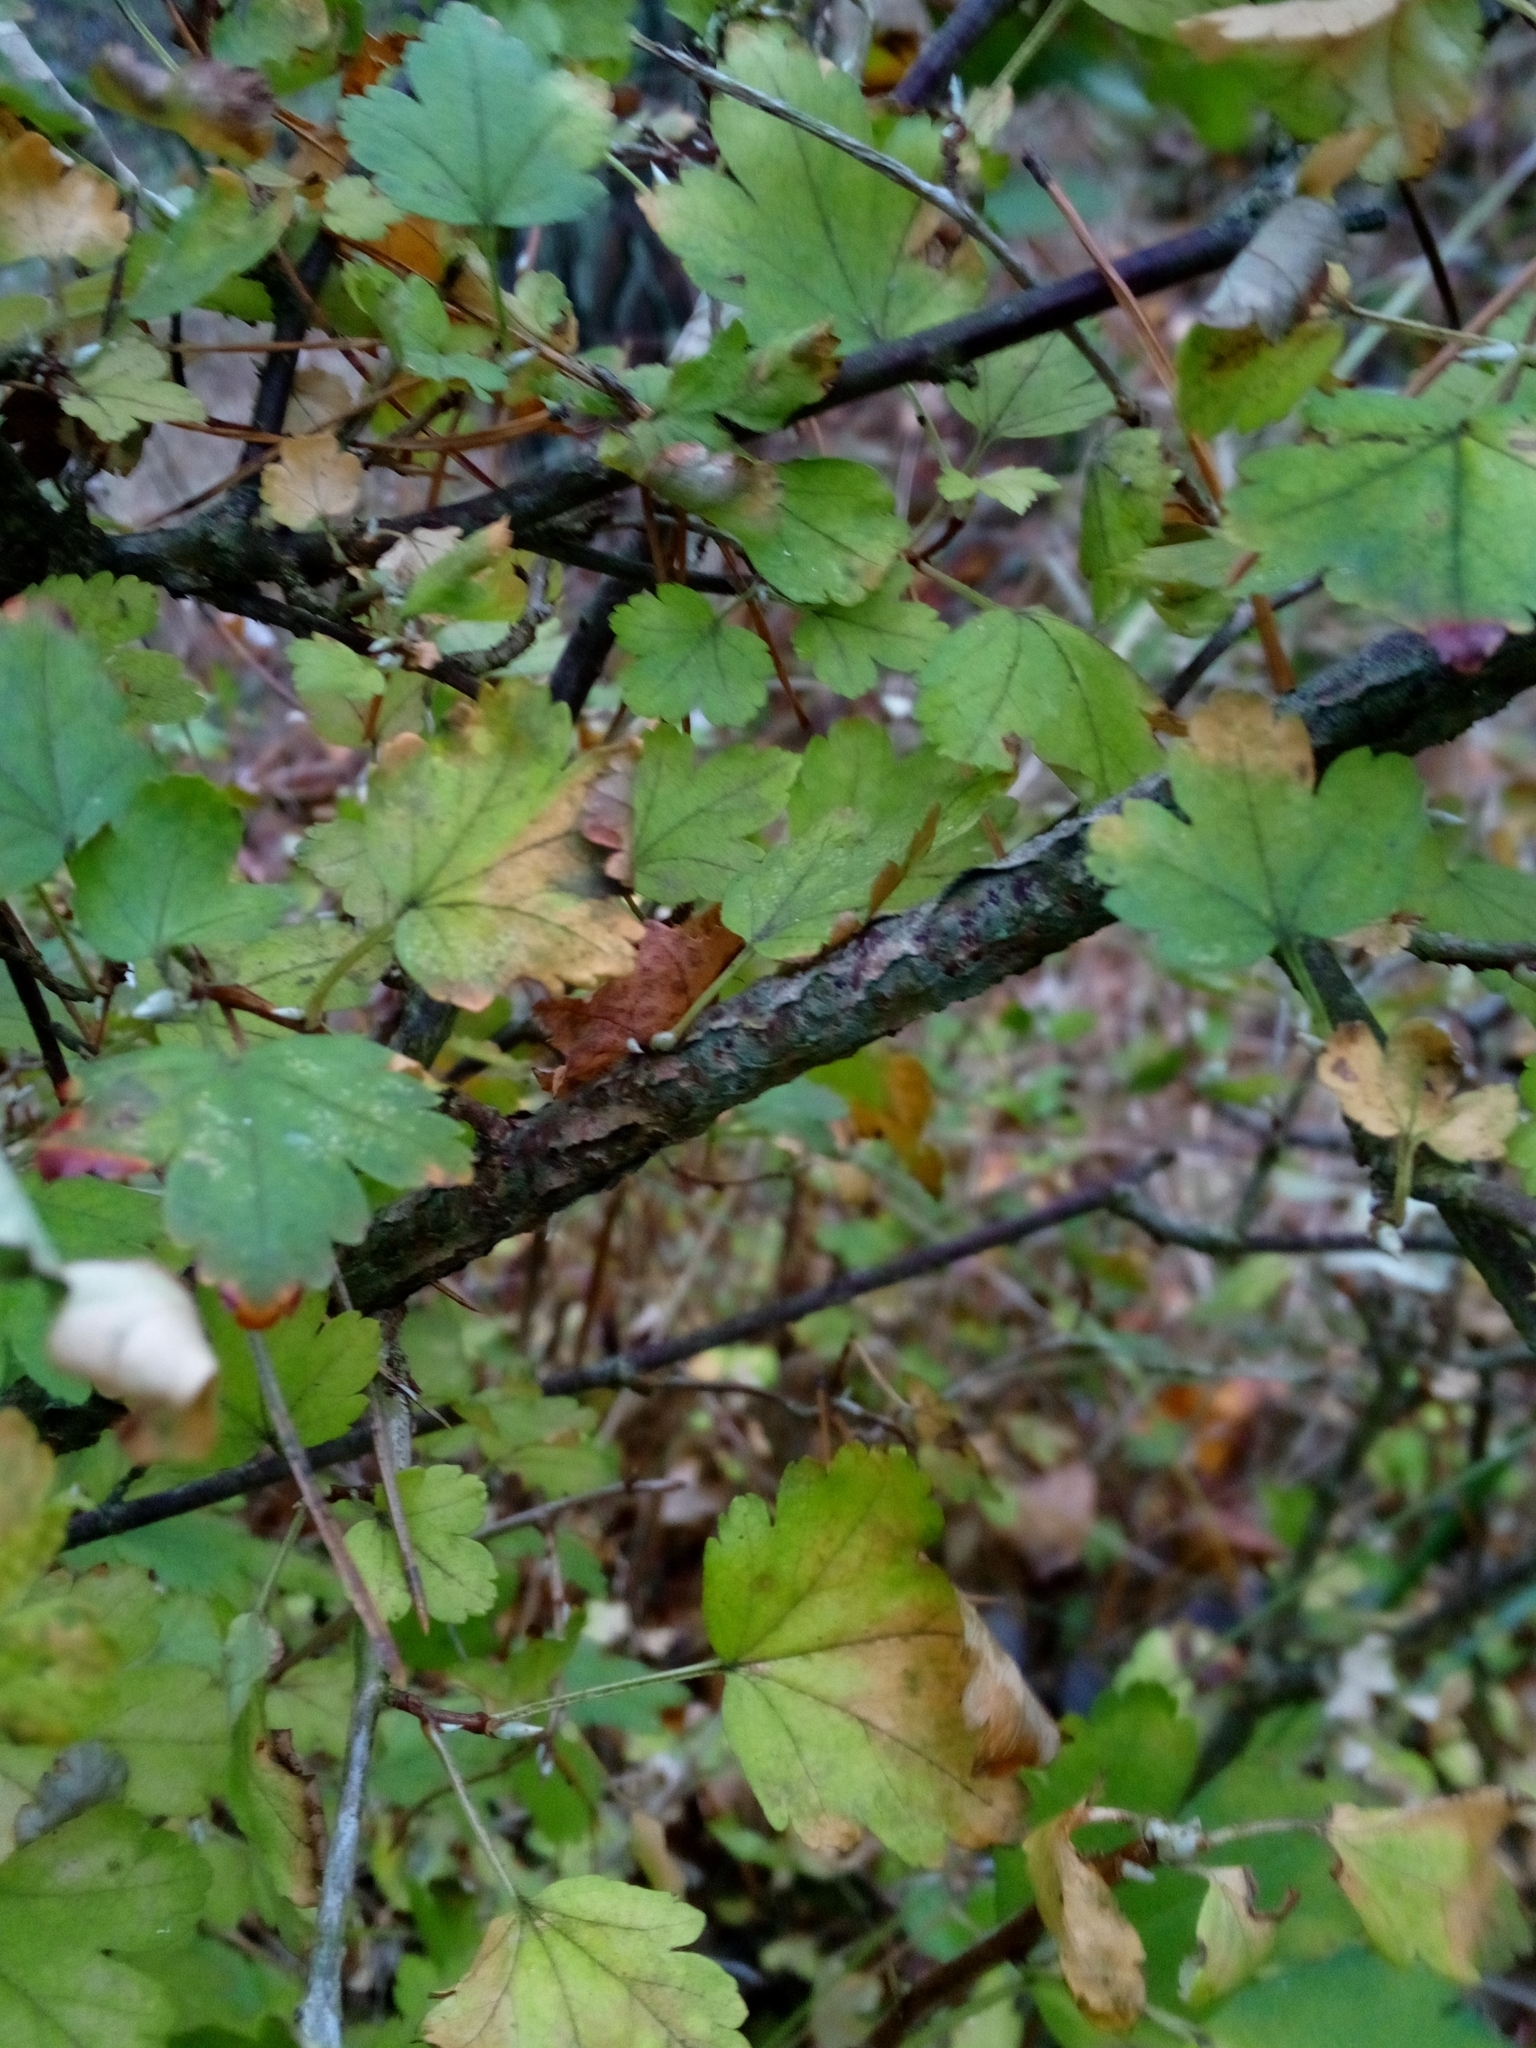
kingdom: Plantae
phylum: Tracheophyta
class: Magnoliopsida
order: Saxifragales
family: Grossulariaceae
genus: Ribes
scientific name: Ribes alpinum
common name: Alpine currant
